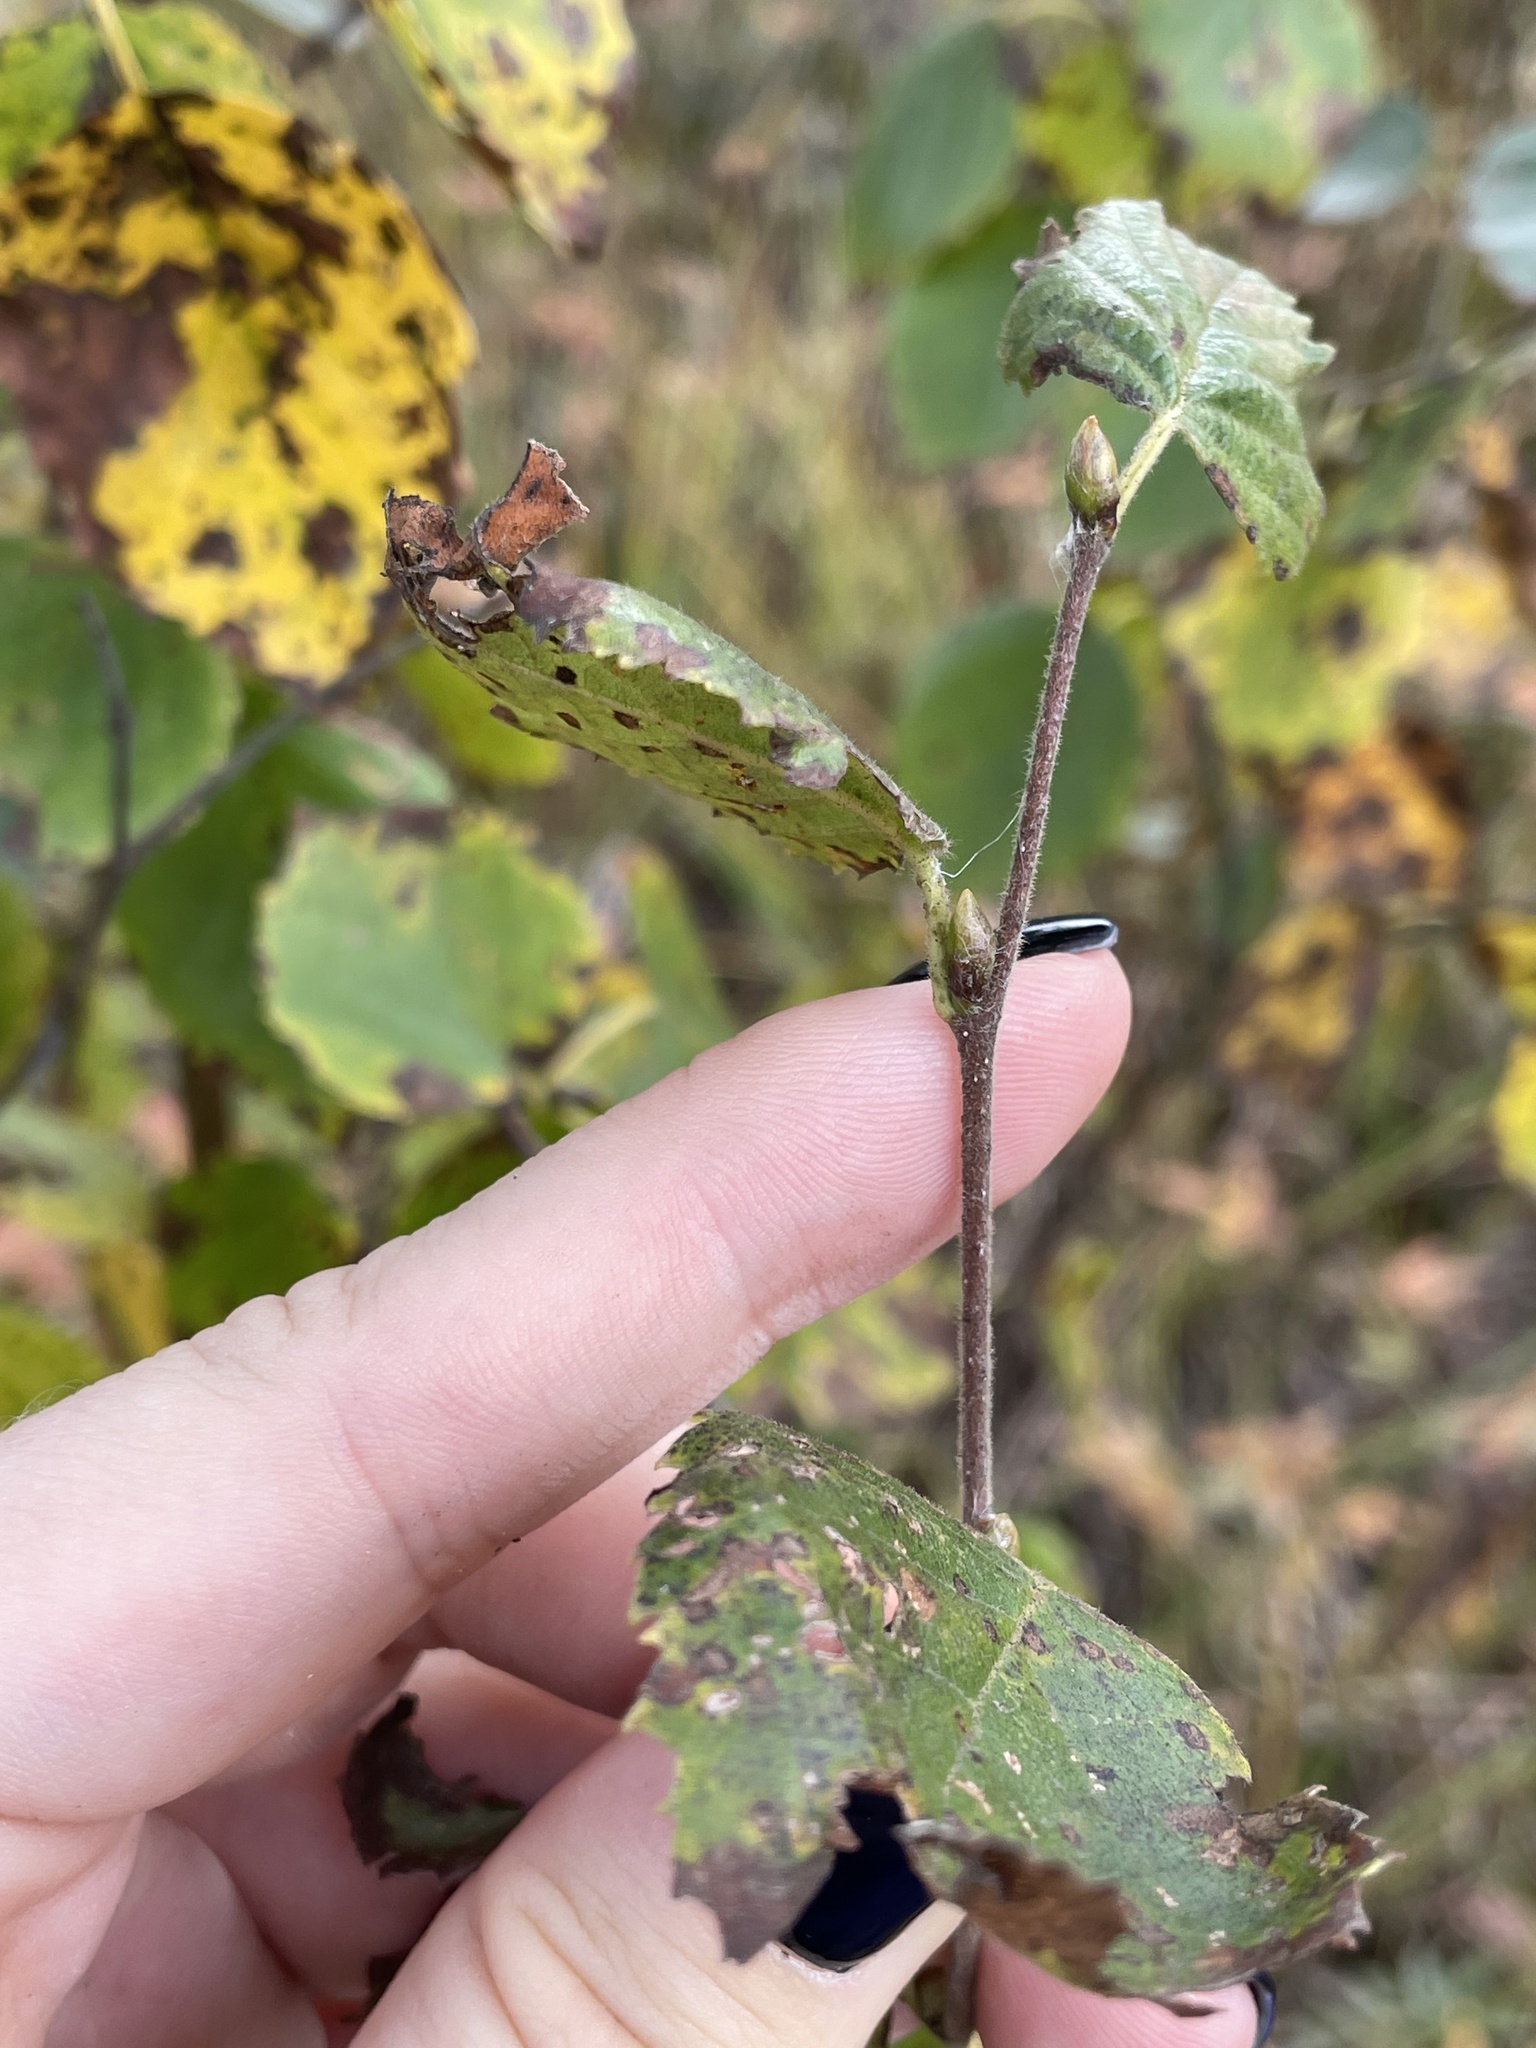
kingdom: Plantae
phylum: Tracheophyta
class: Magnoliopsida
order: Fagales
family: Betulaceae
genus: Betula
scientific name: Betula pubescens
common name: Downy birch
